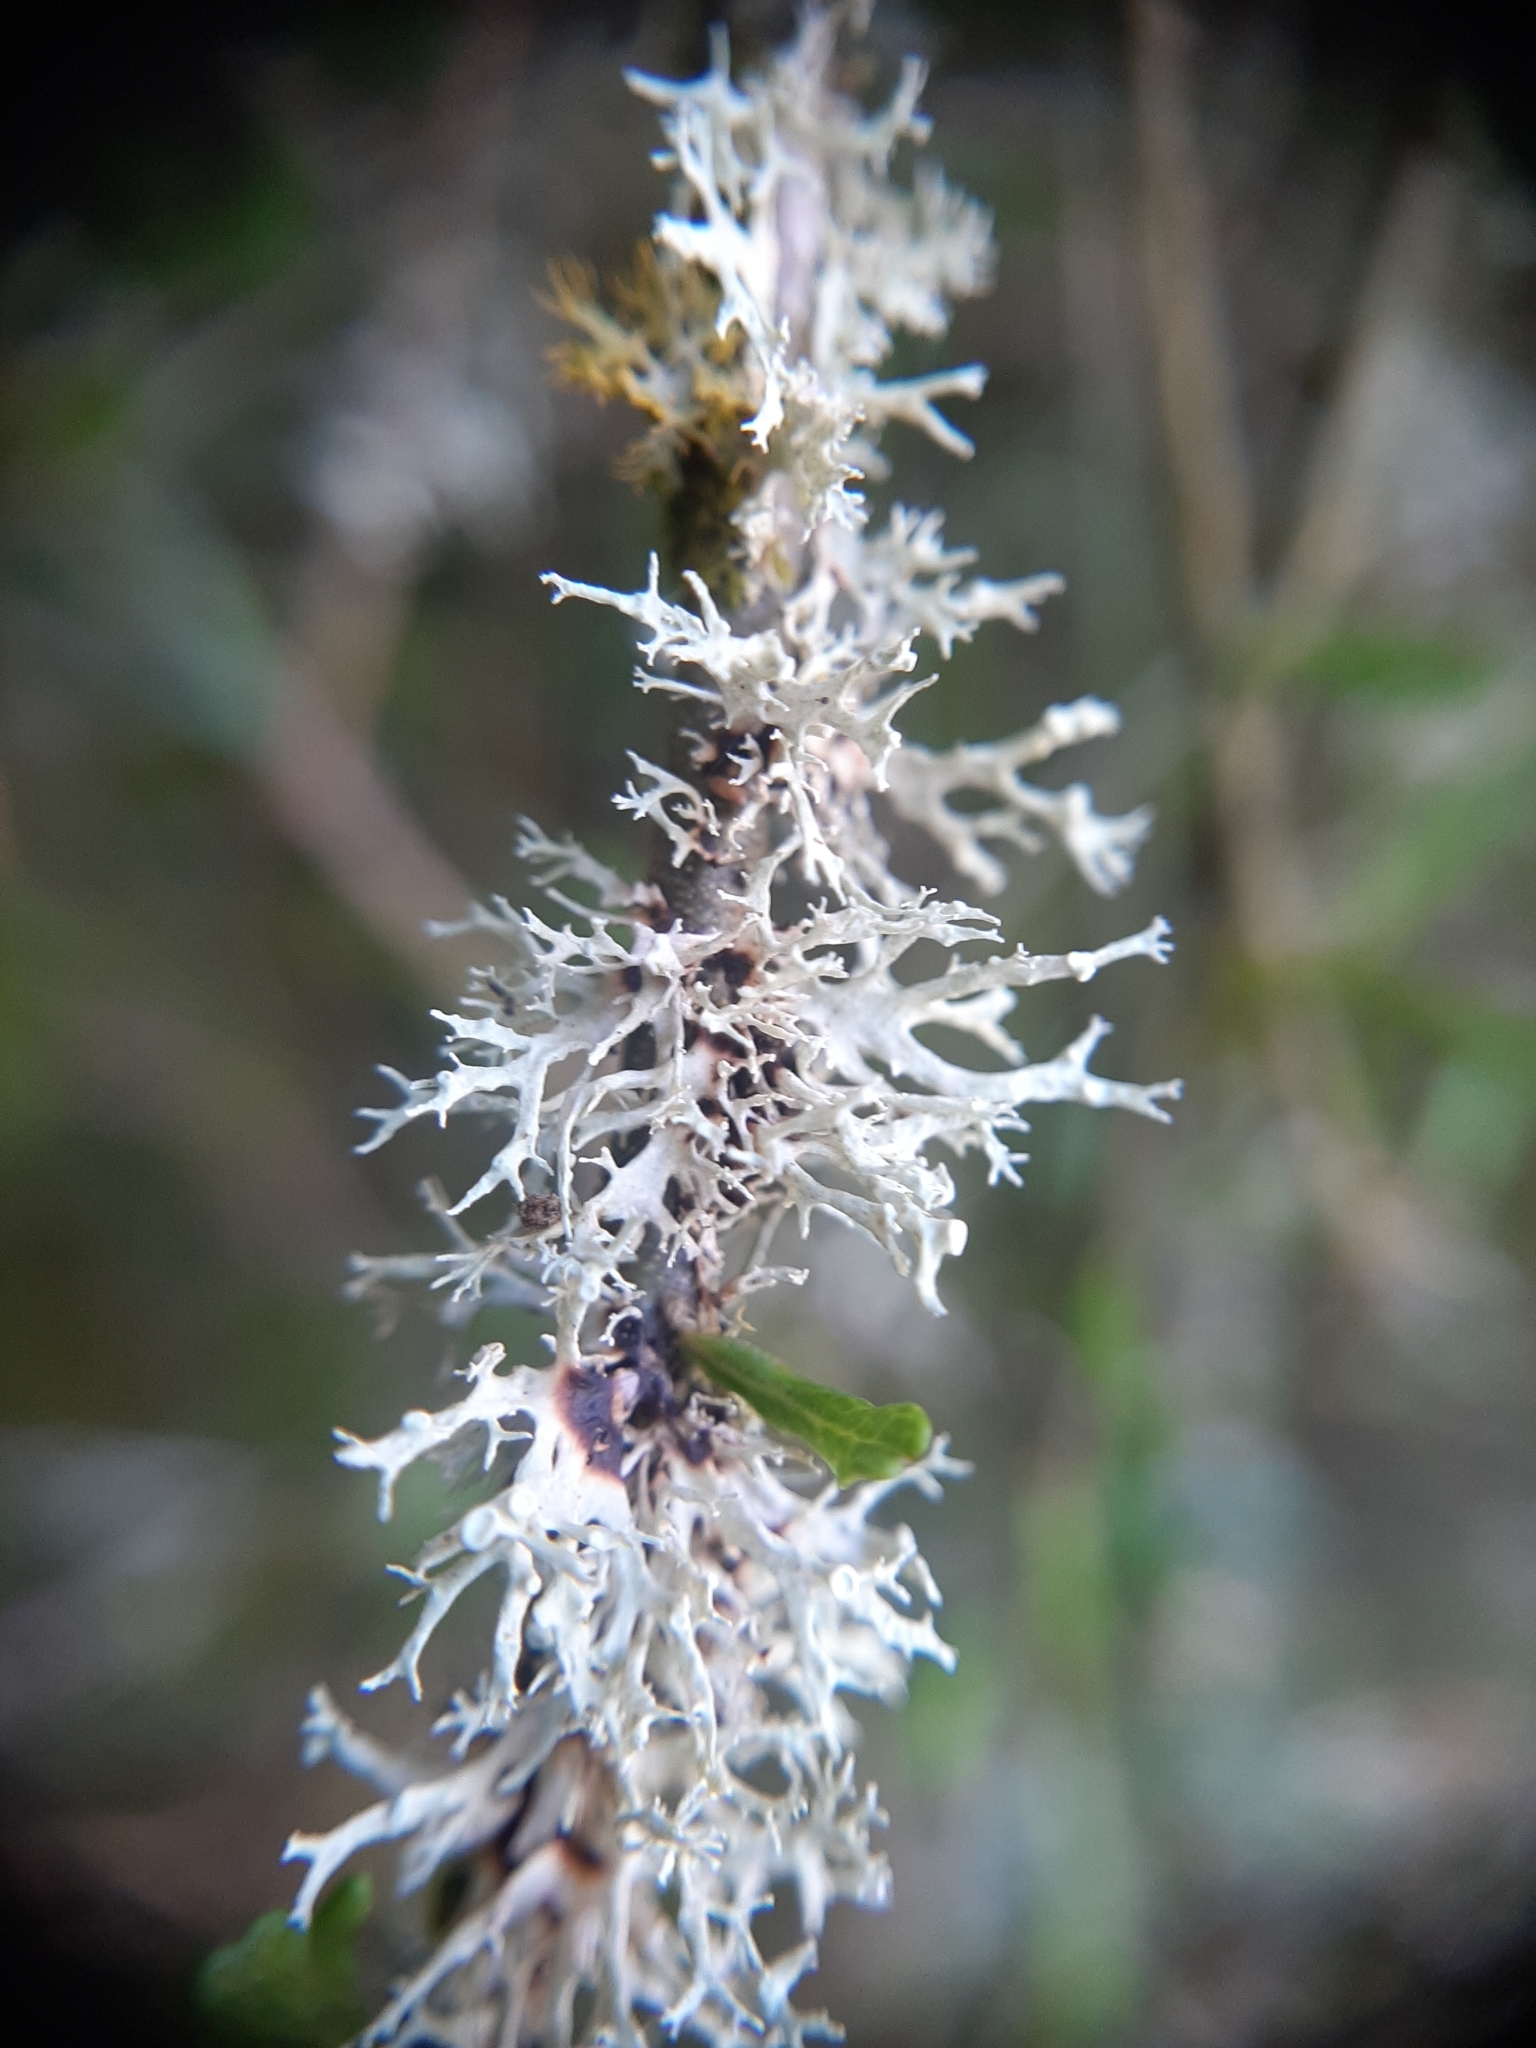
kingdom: Fungi
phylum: Ascomycota
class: Lecanoromycetes
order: Lecanorales
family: Ramalinaceae
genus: Ramalina
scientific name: Ramalina glaucescens
